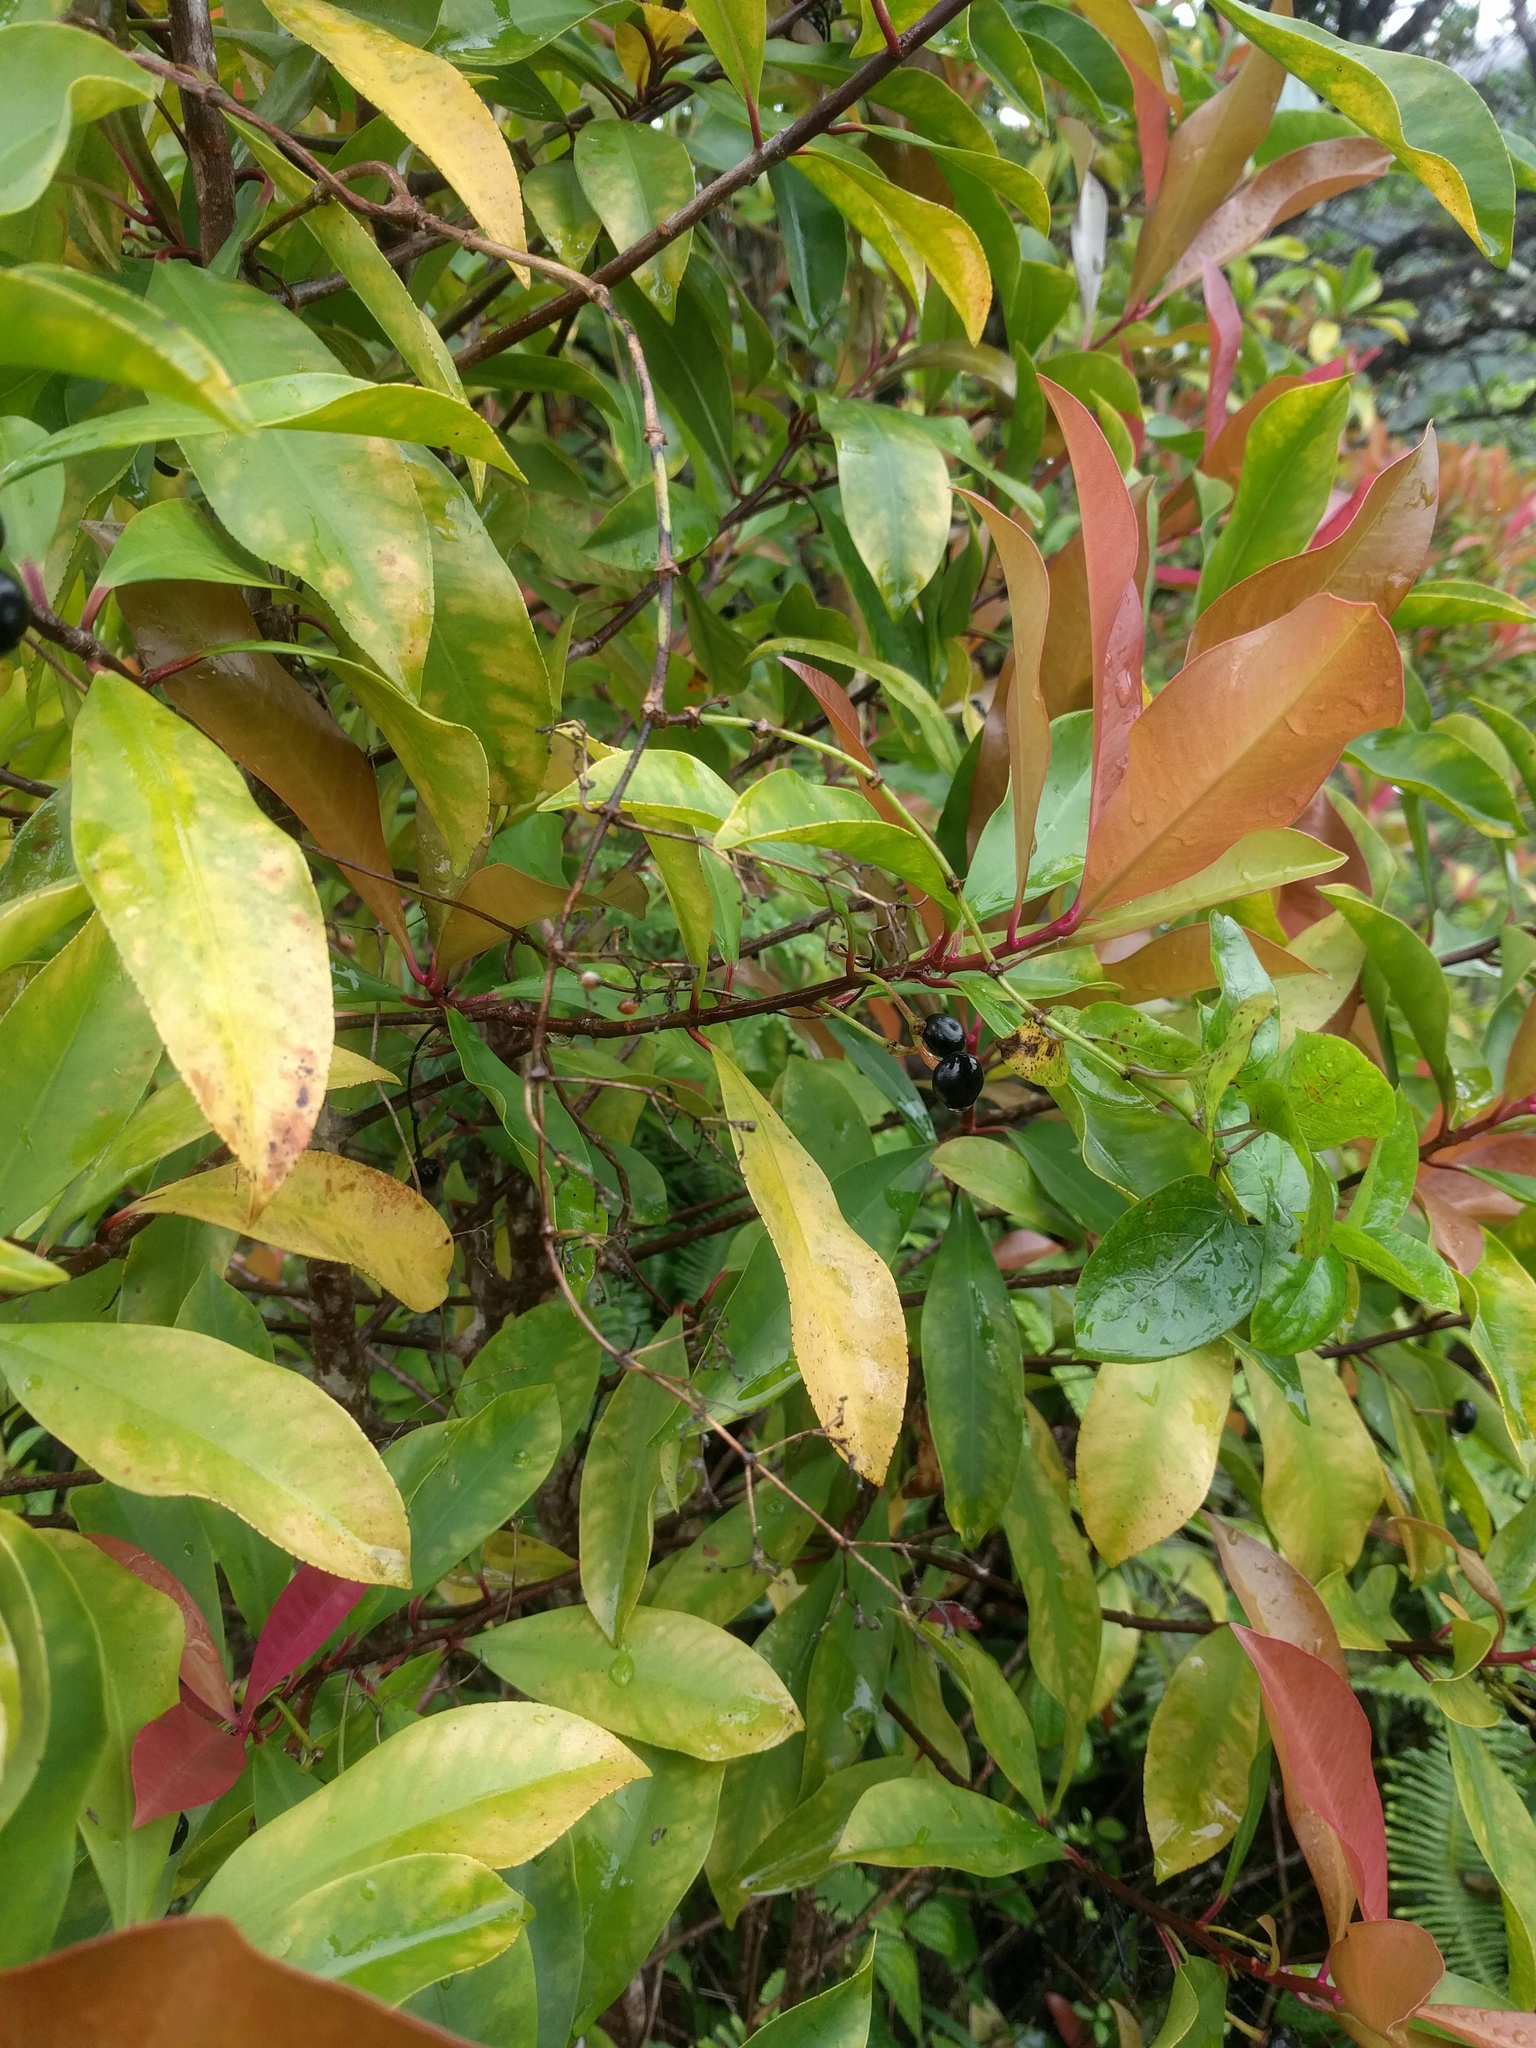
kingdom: Plantae
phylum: Tracheophyta
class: Magnoliopsida
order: Ericales
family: Primulaceae
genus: Ardisia
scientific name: Ardisia elliptica
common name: Shoebutton
